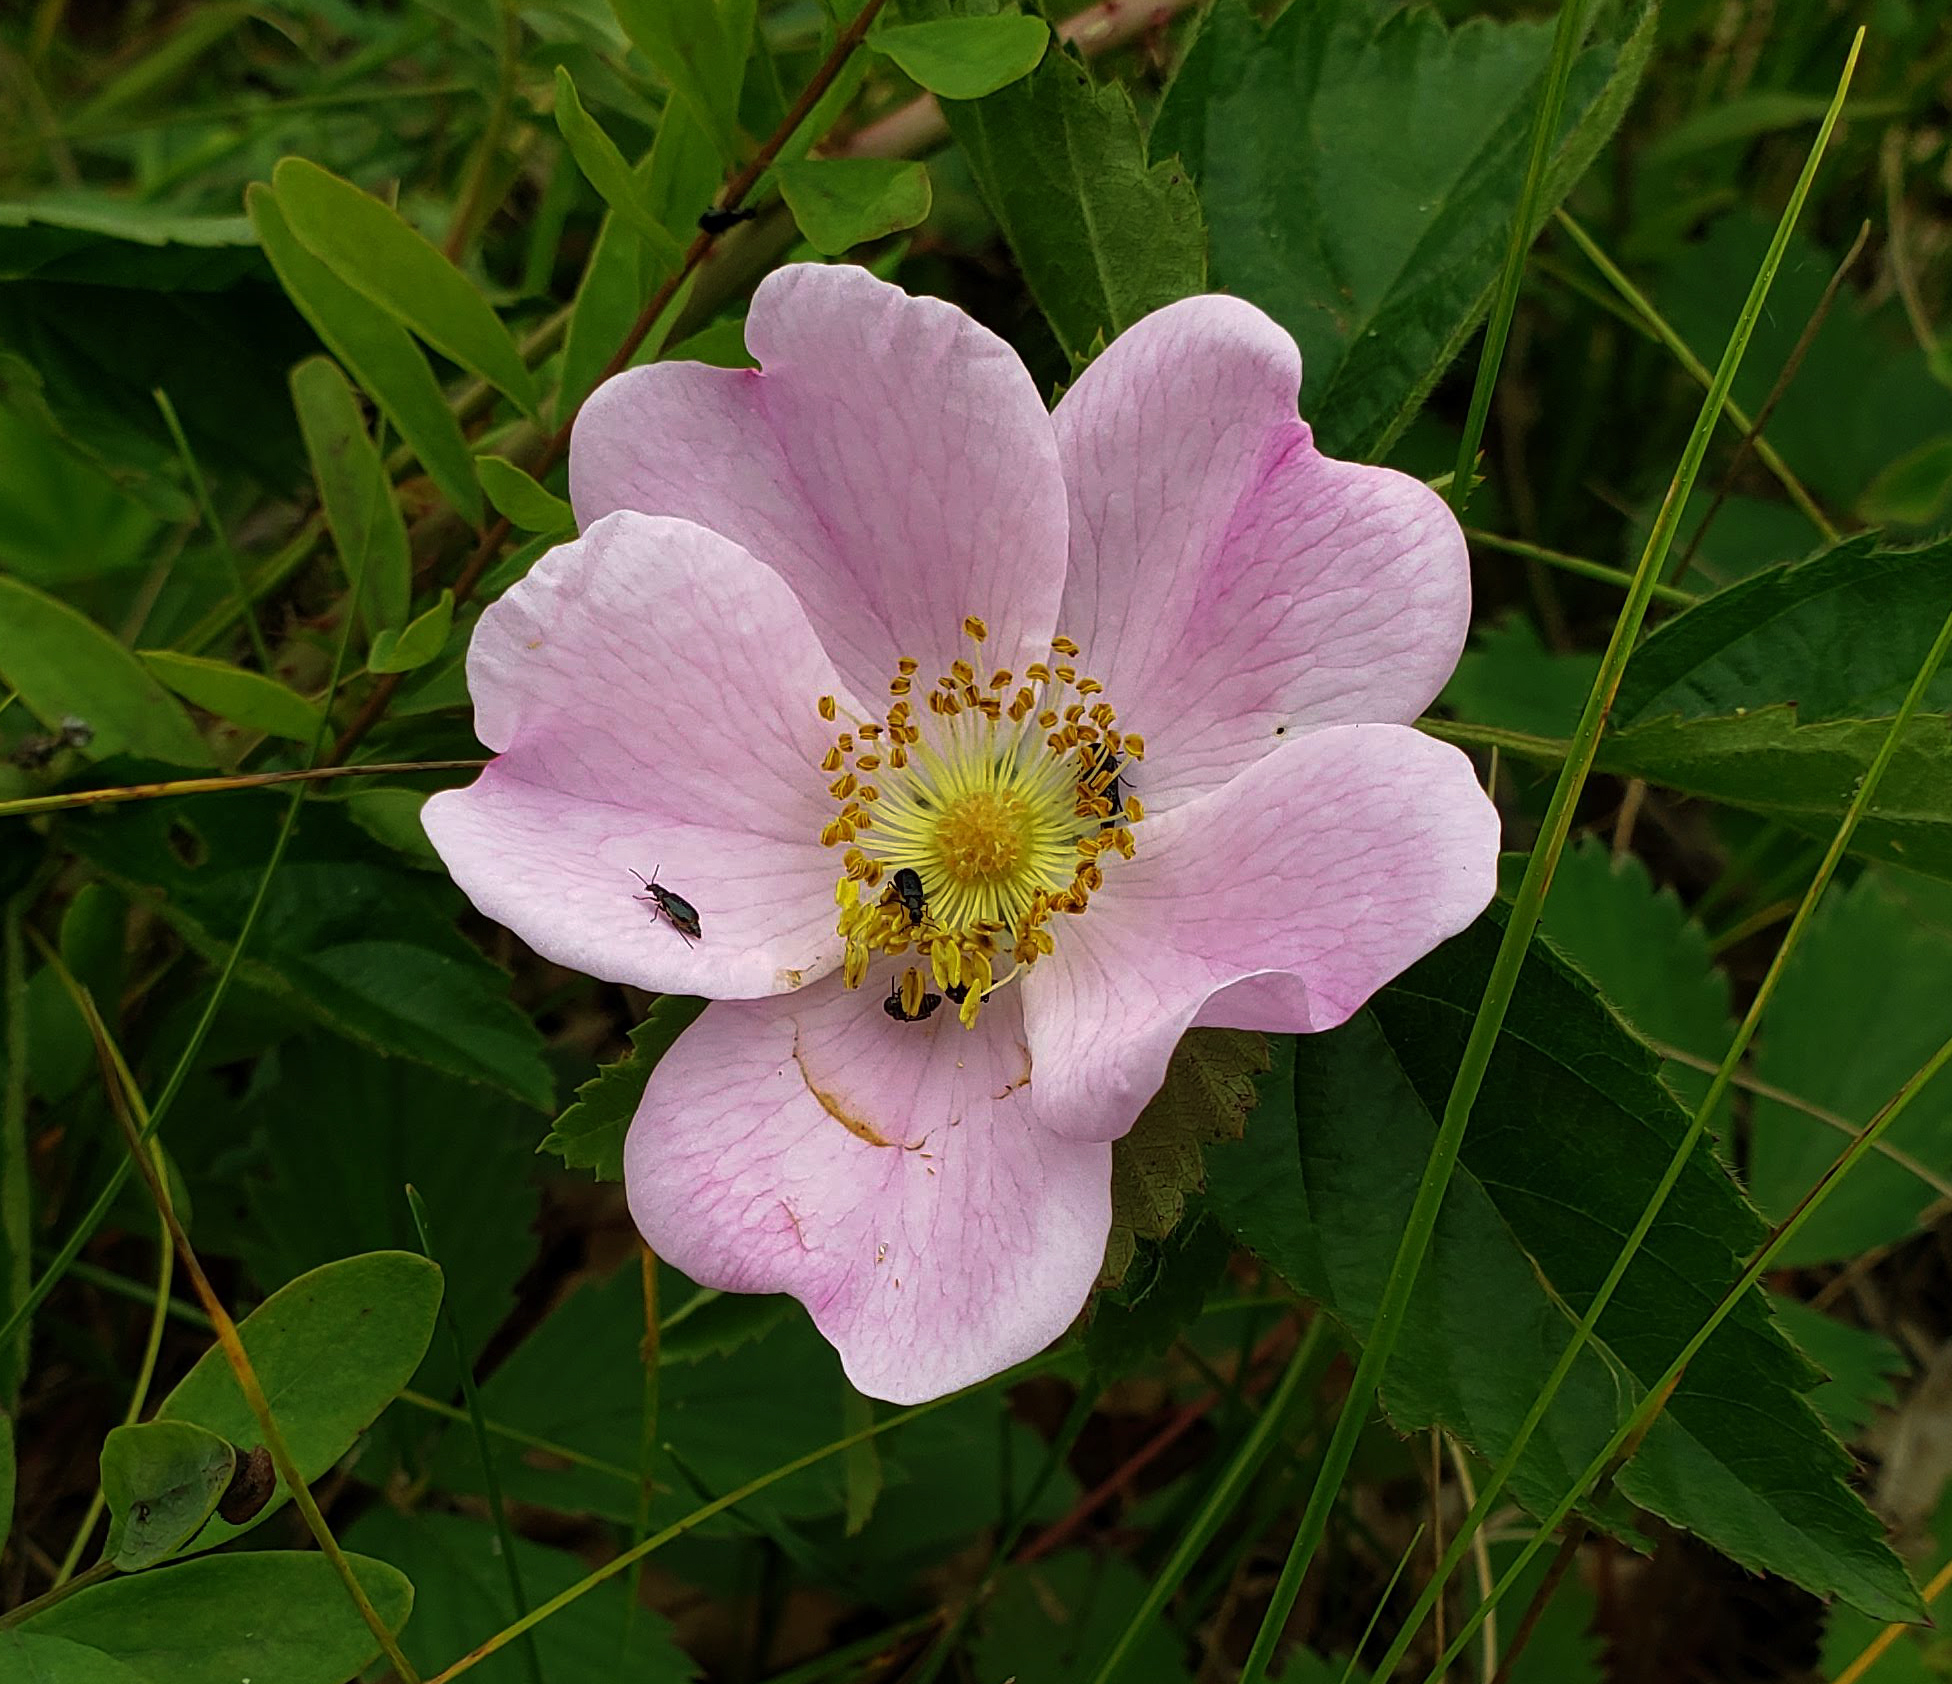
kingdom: Plantae
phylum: Tracheophyta
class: Magnoliopsida
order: Rosales
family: Rosaceae
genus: Rosa
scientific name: Rosa carolina
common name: Pasture rose
